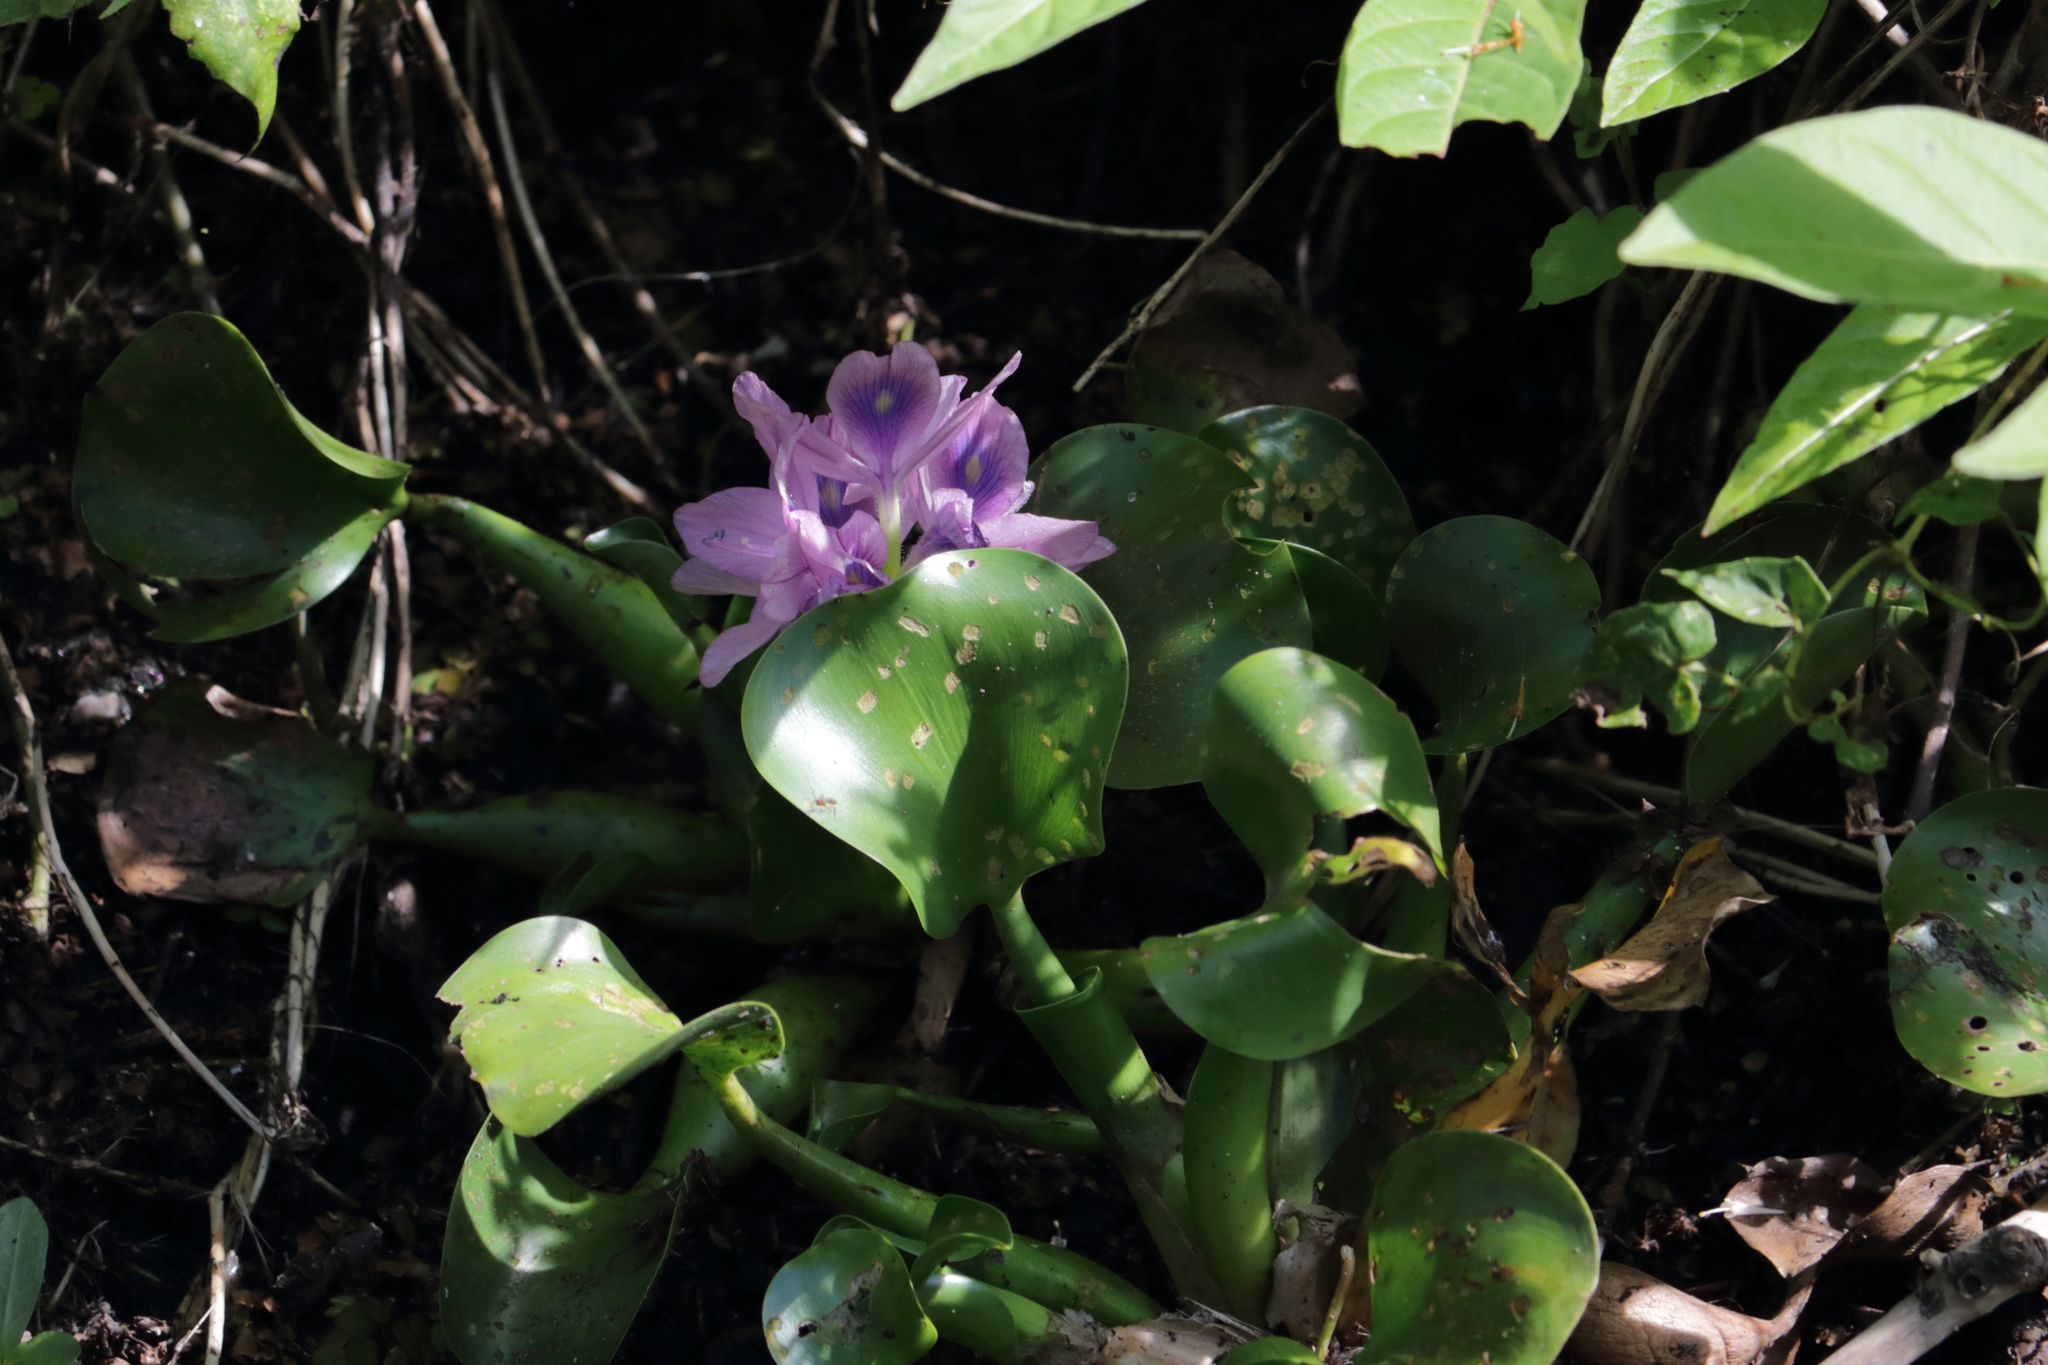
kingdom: Plantae
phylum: Tracheophyta
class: Liliopsida
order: Commelinales
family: Pontederiaceae
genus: Pontederia
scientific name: Pontederia crassipes
